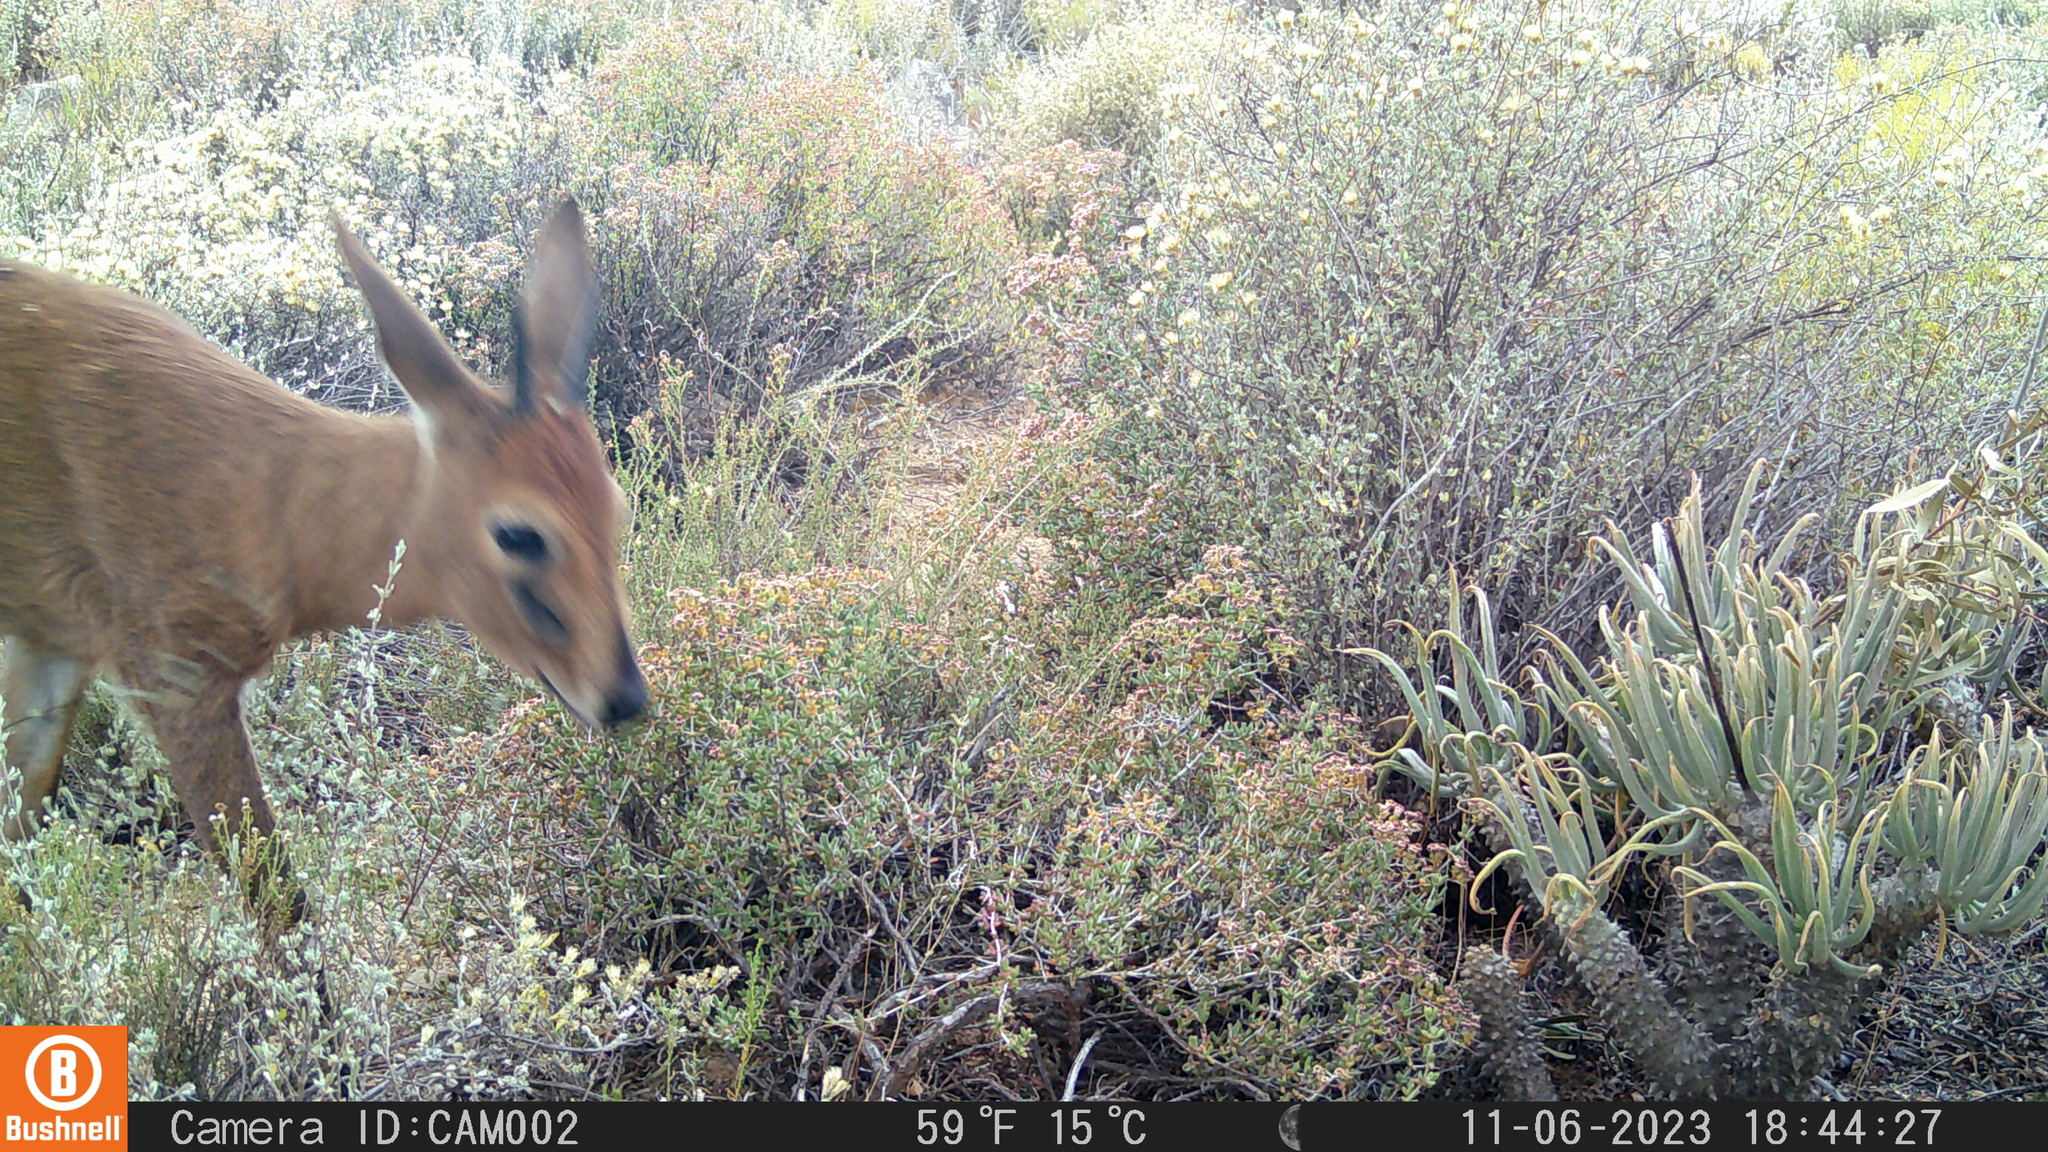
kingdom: Animalia
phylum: Chordata
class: Mammalia
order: Artiodactyla
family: Bovidae
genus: Sylvicapra
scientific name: Sylvicapra grimmia
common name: Bush duiker
